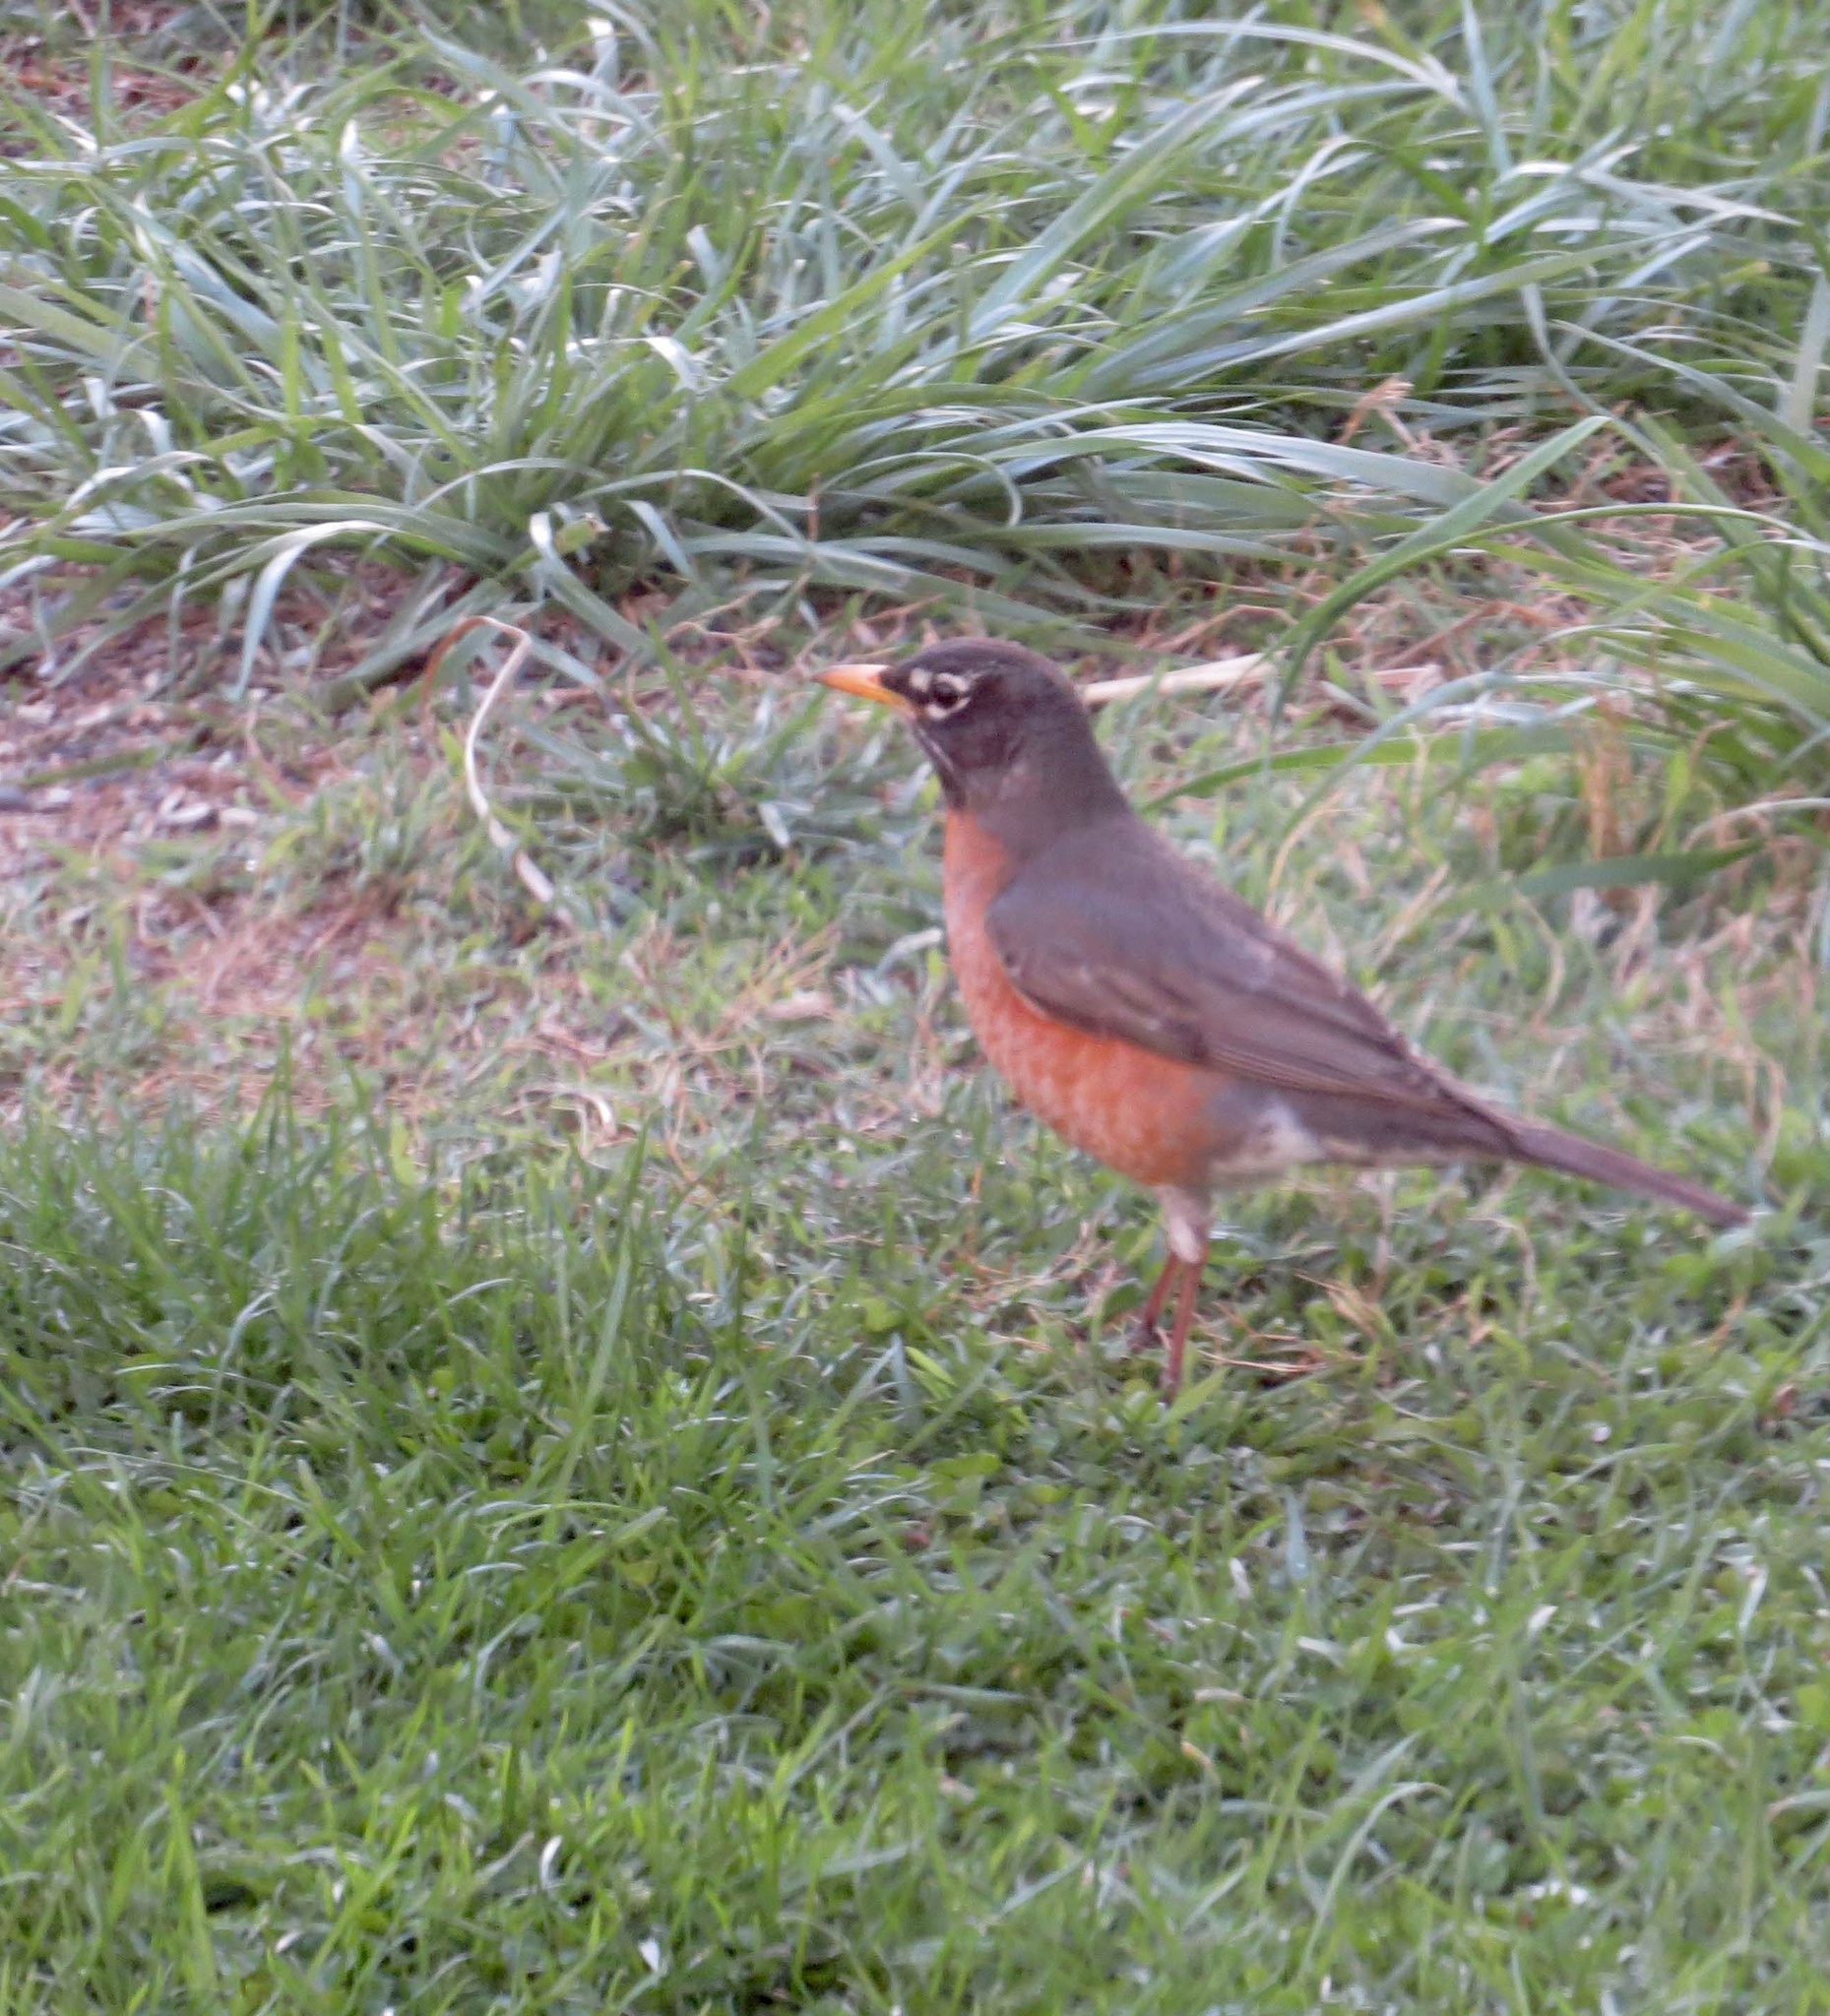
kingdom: Animalia
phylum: Chordata
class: Aves
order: Passeriformes
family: Turdidae
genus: Turdus
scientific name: Turdus migratorius
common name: American robin
